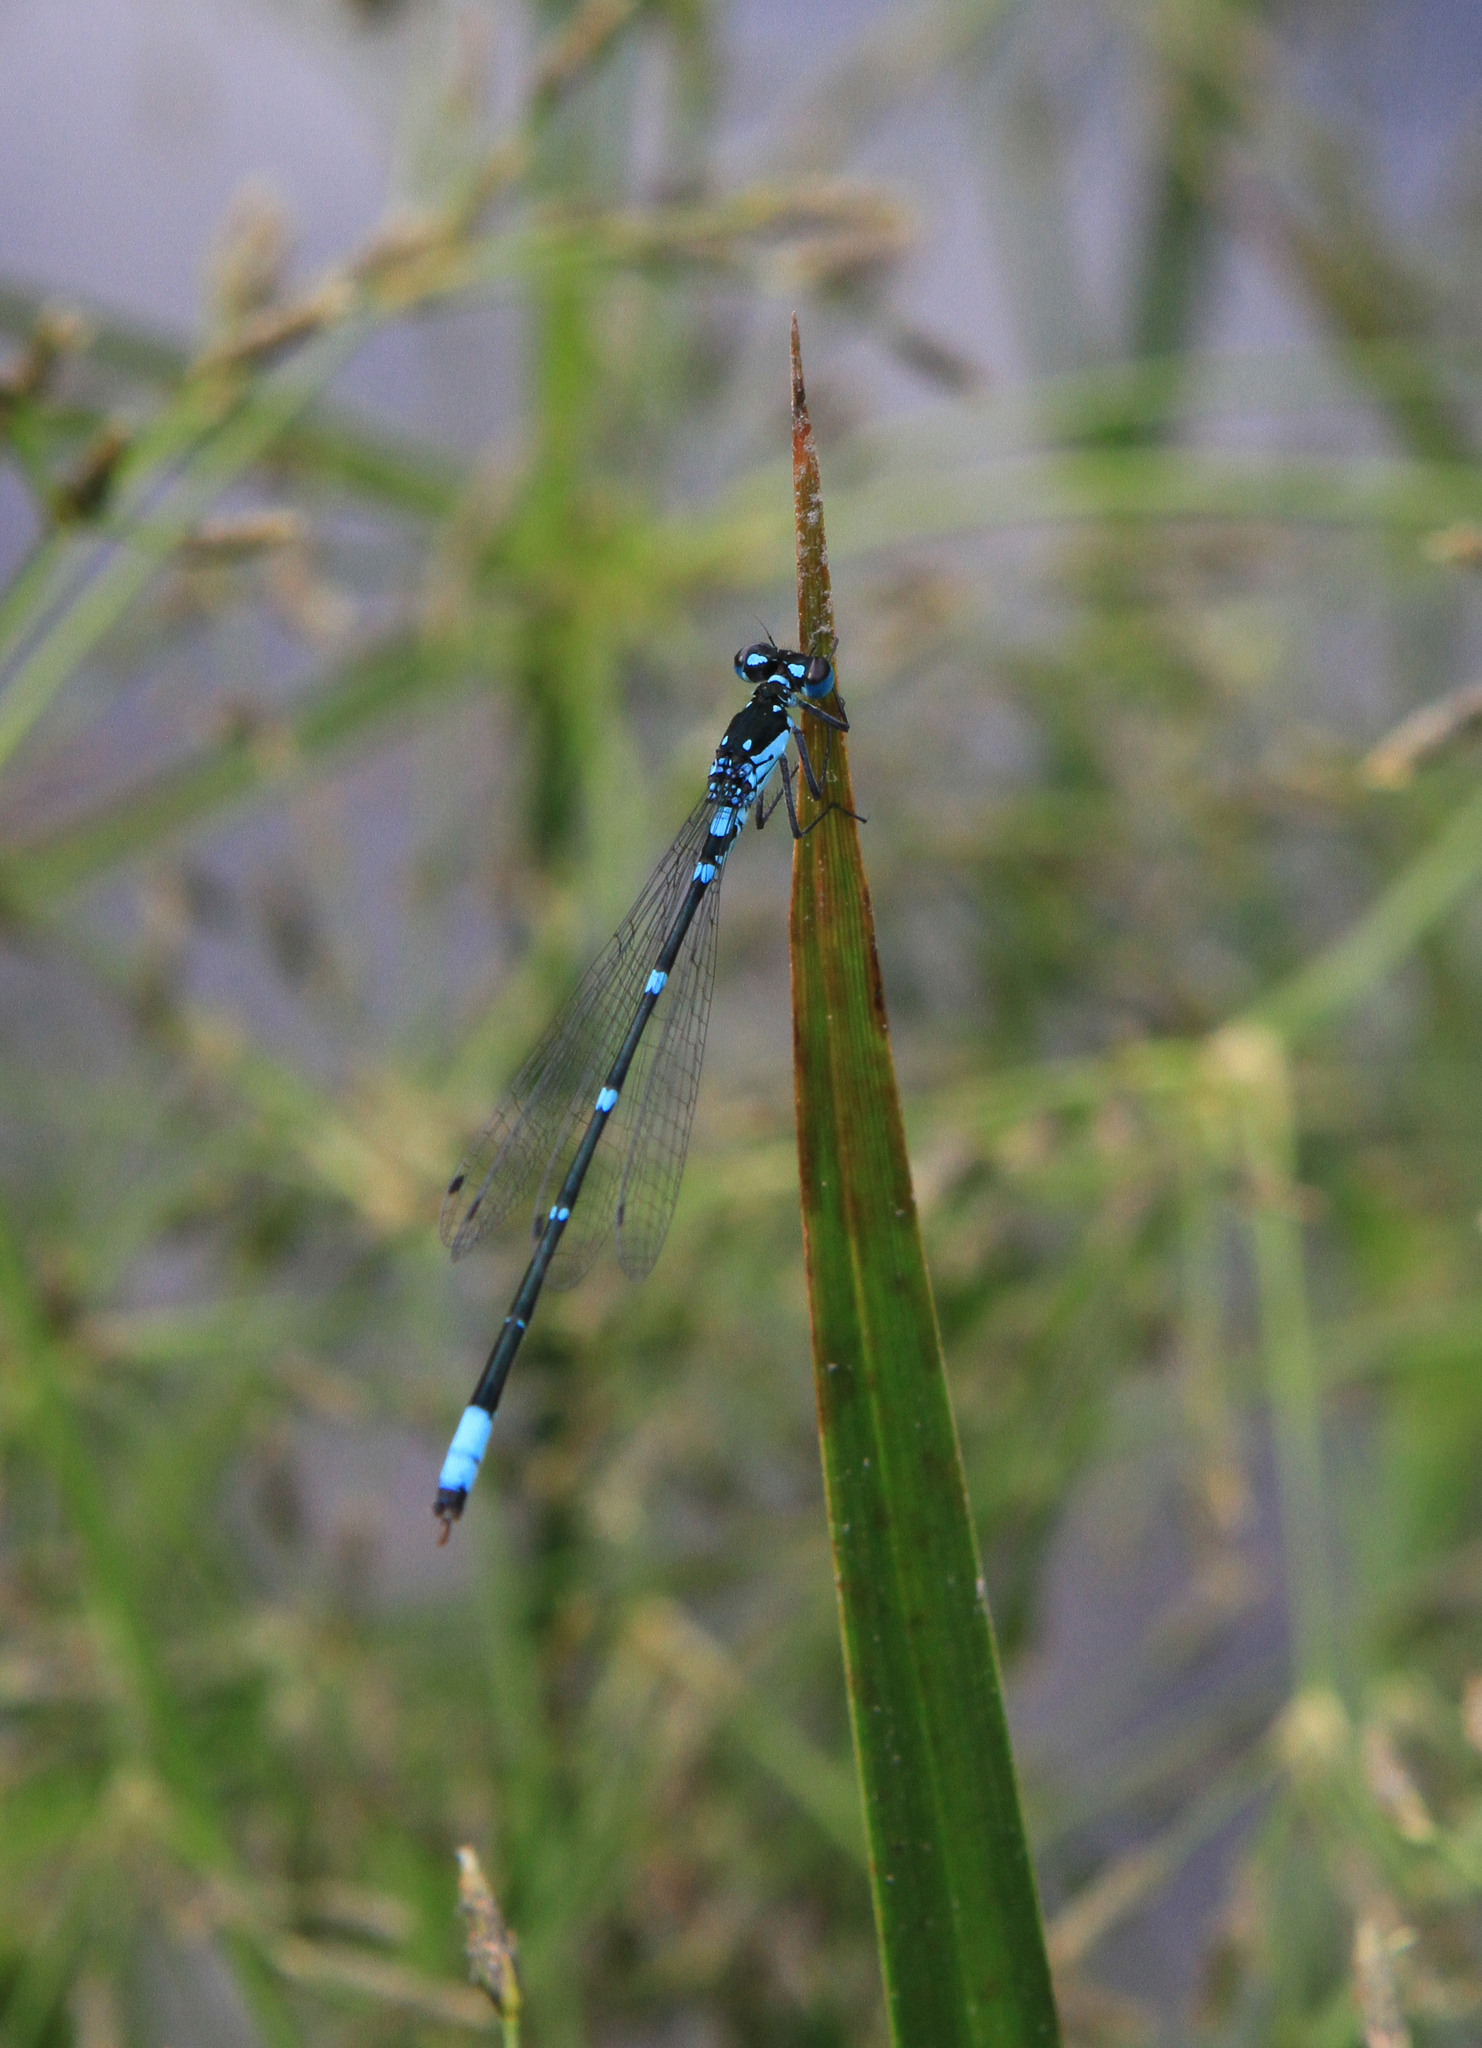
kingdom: Animalia
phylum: Arthropoda
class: Insecta
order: Odonata
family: Coenagrionidae
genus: Coenagrion
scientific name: Coenagrion pulchellum
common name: Variable bluet
